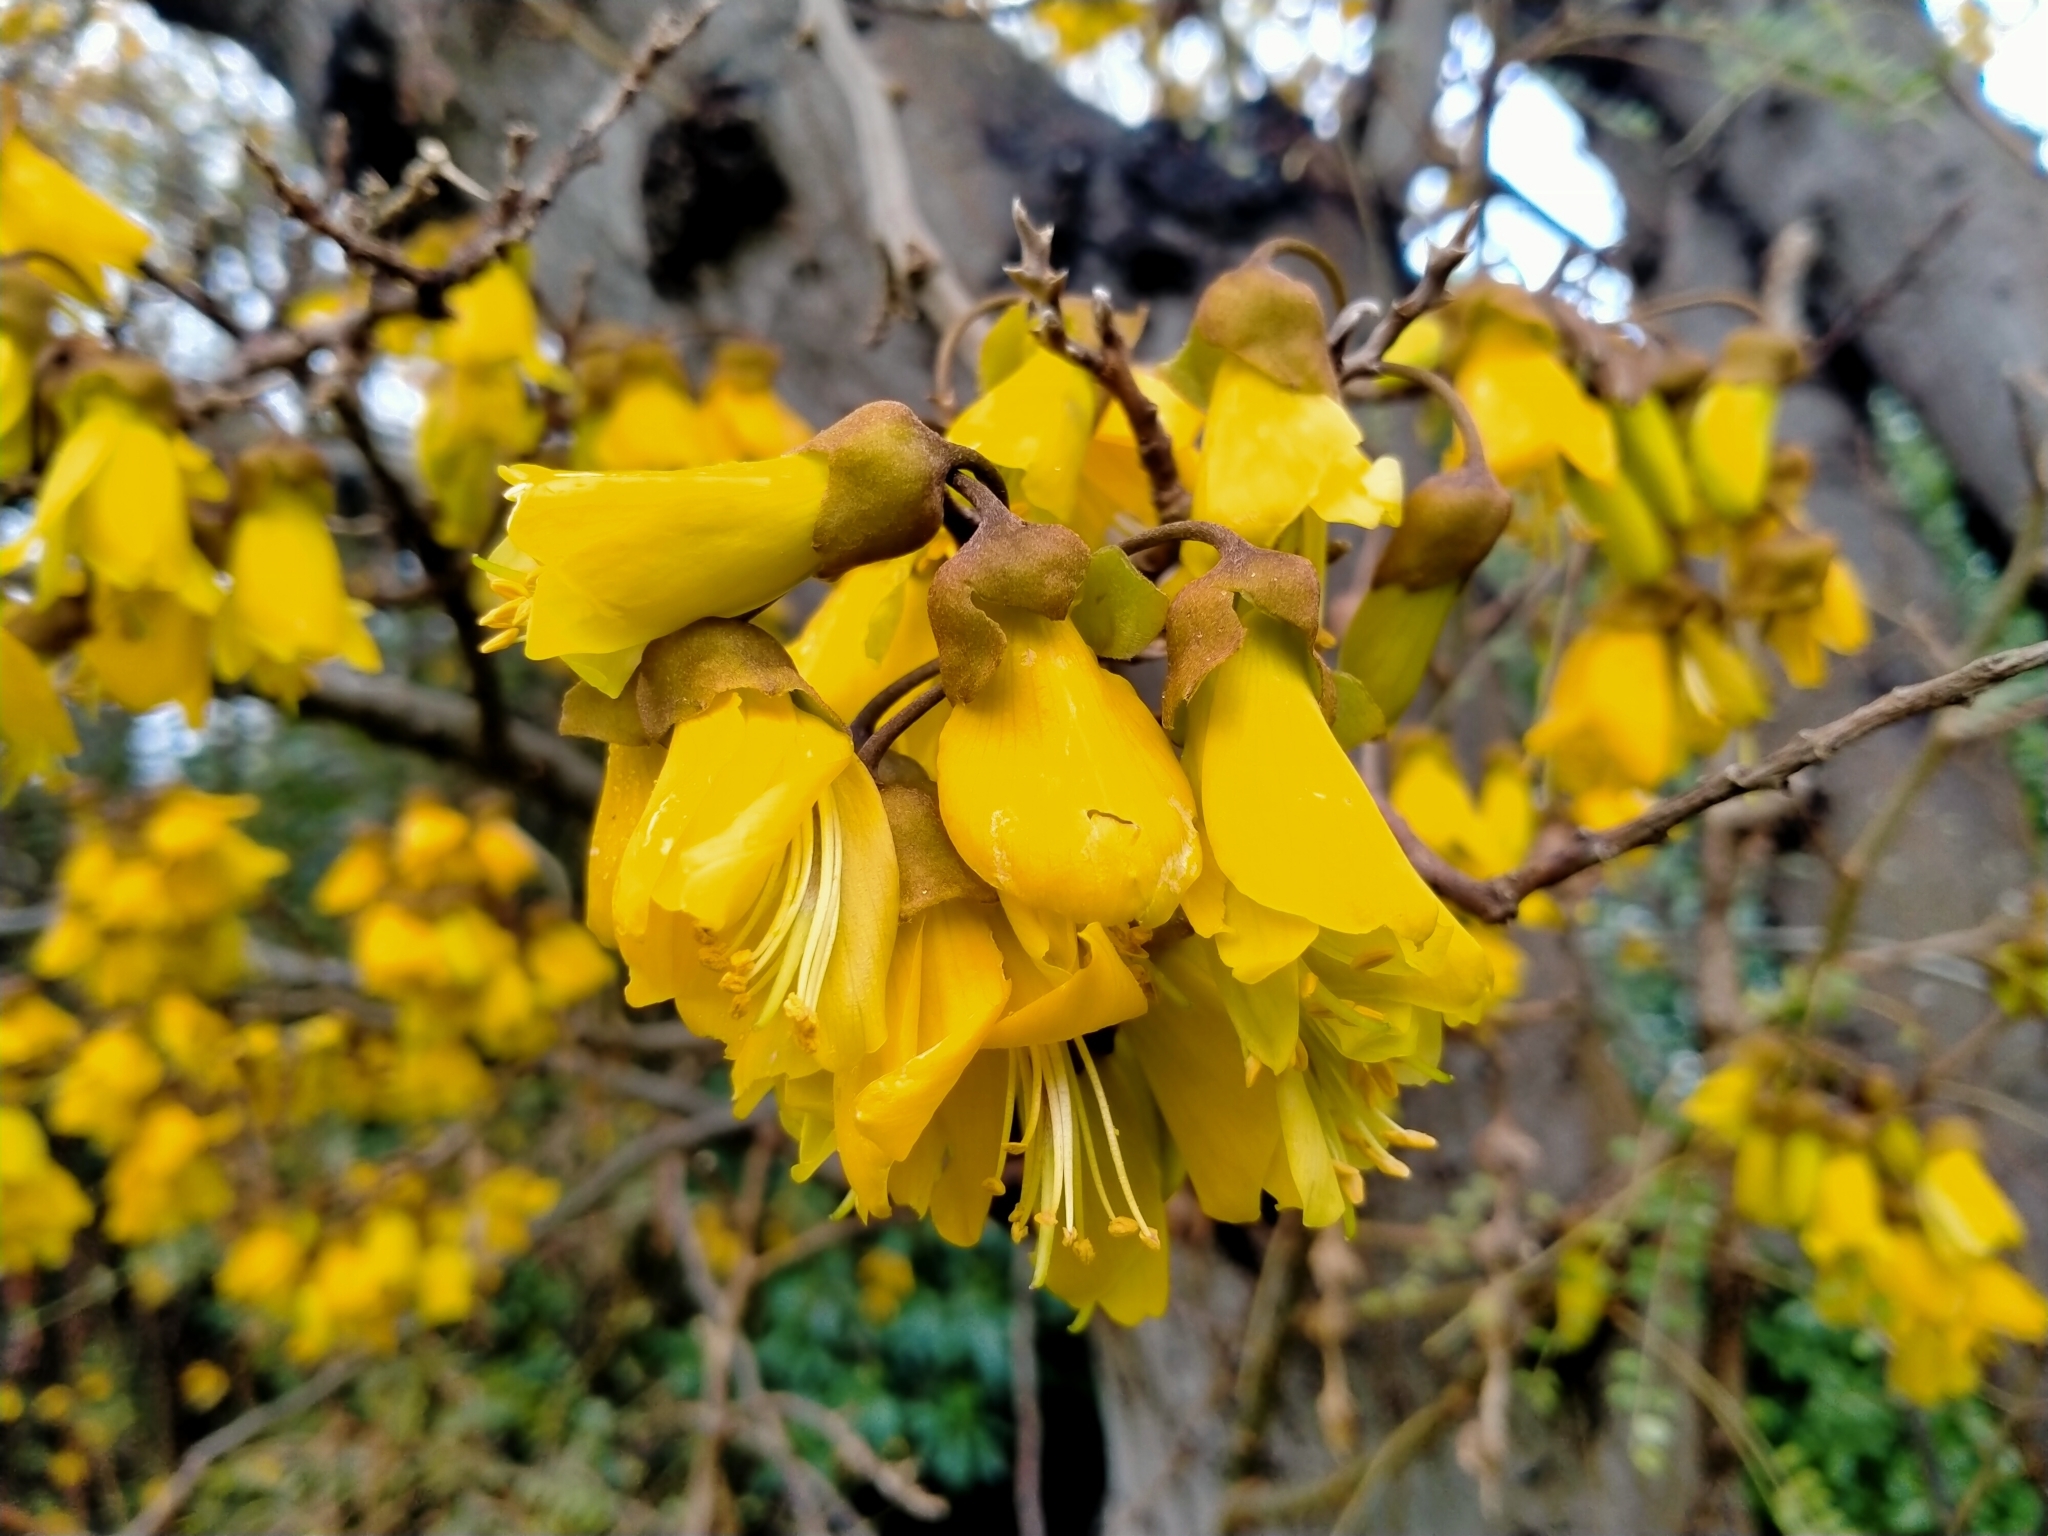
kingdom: Plantae
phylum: Tracheophyta
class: Magnoliopsida
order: Fabales
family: Fabaceae
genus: Sophora
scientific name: Sophora microphylla
